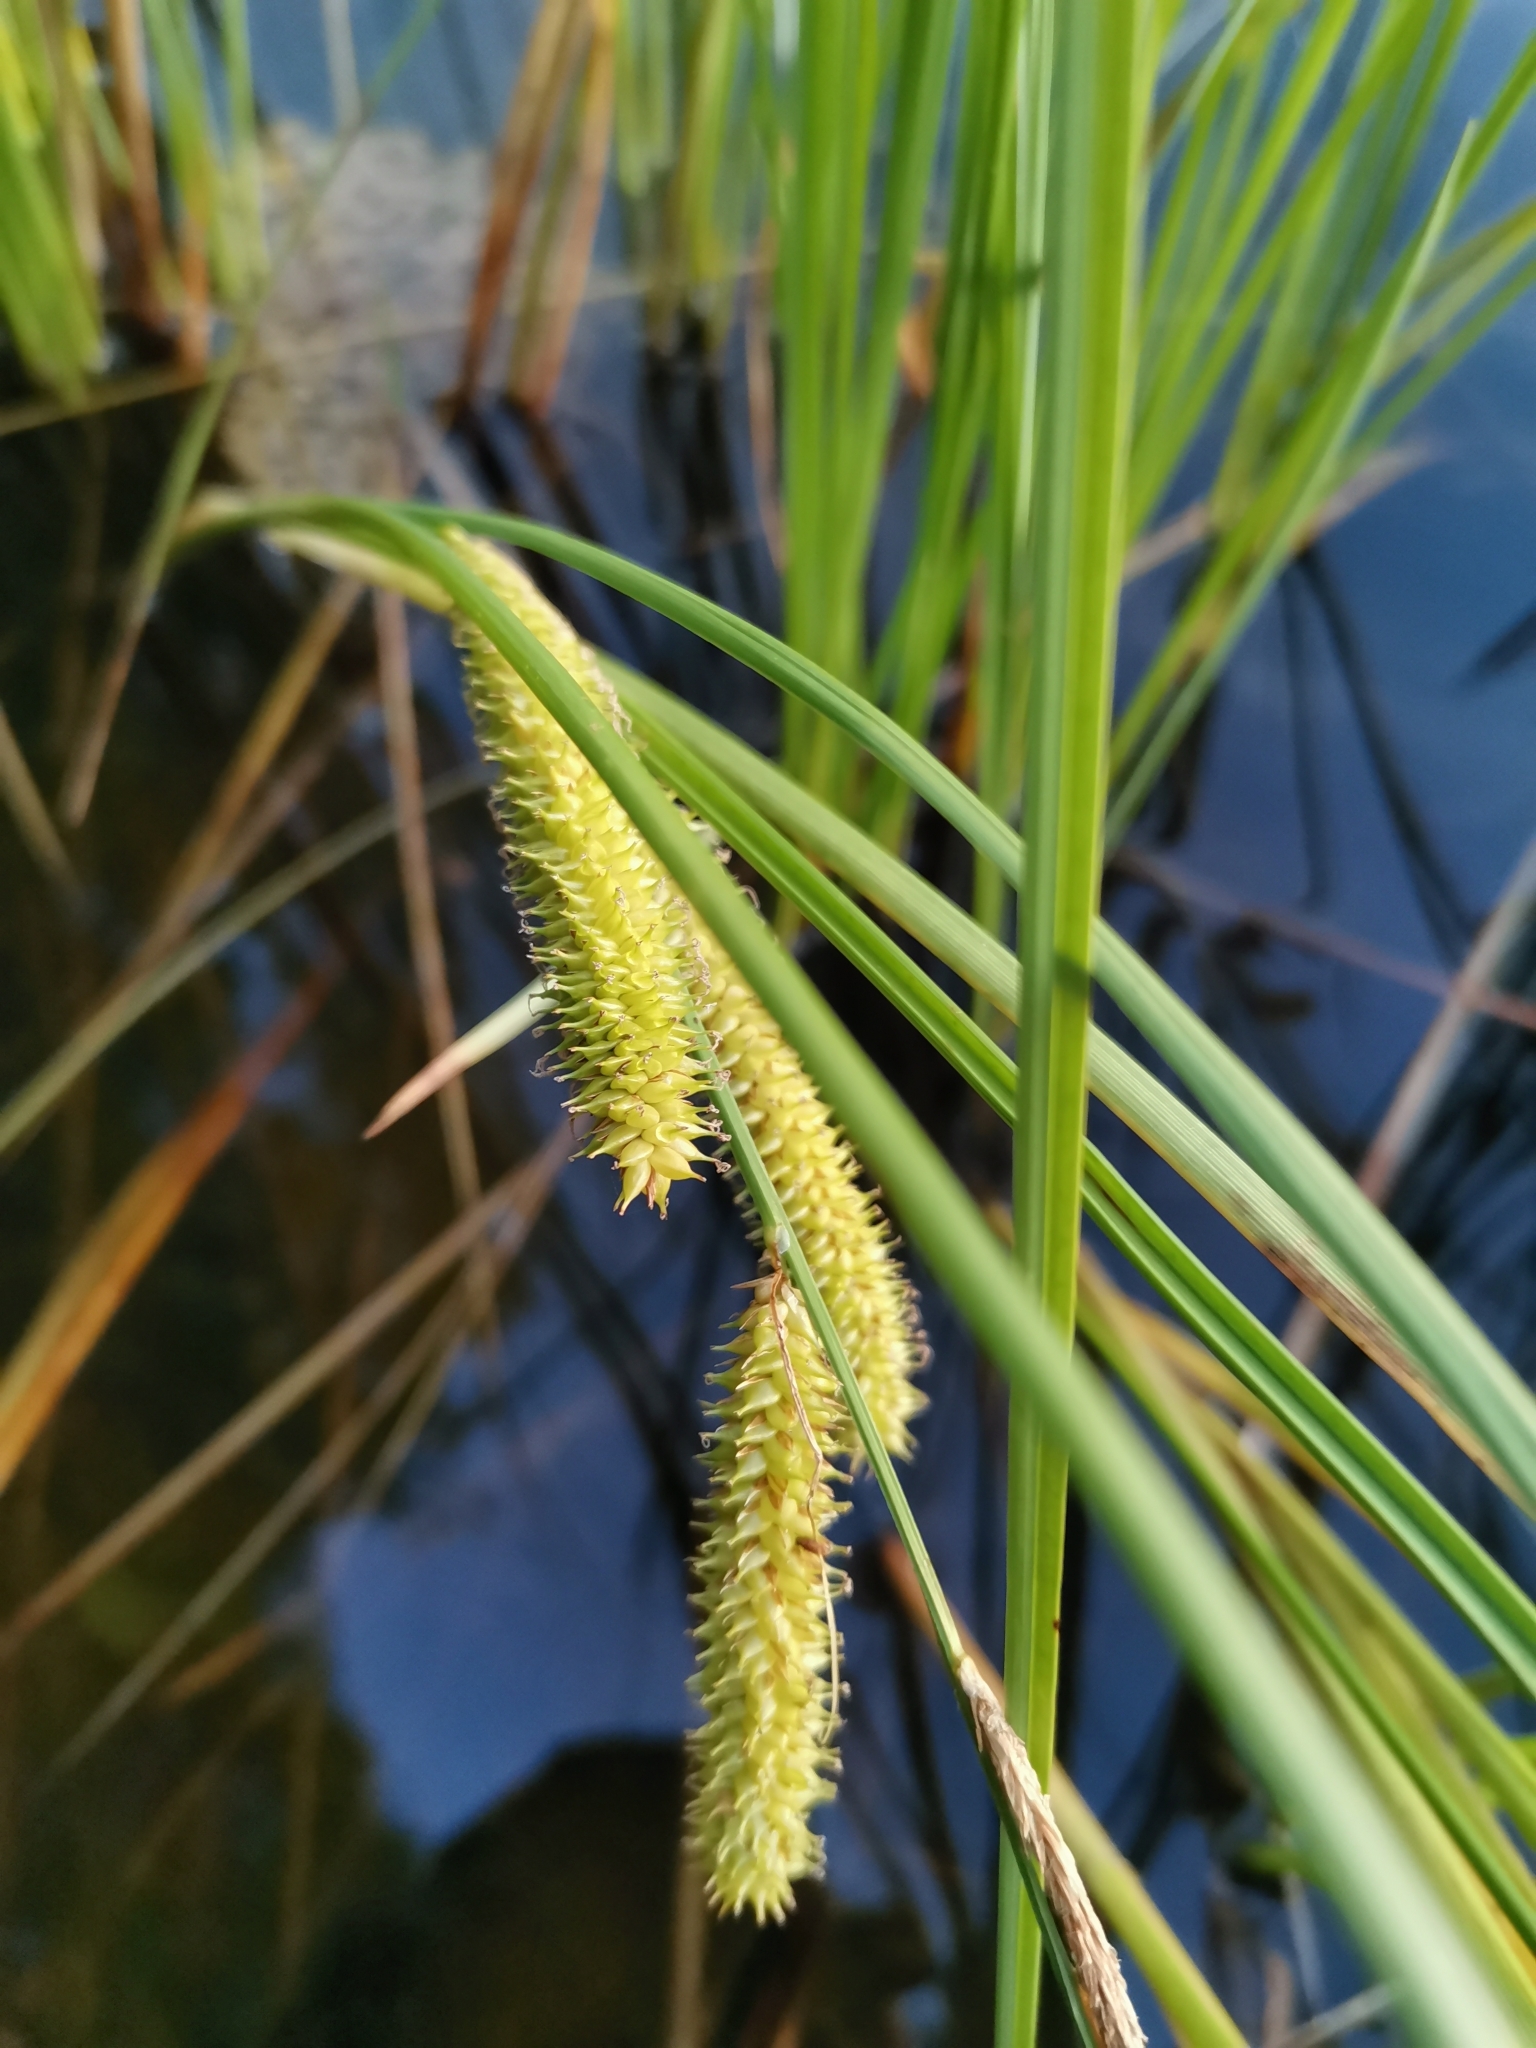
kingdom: Plantae
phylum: Tracheophyta
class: Liliopsida
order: Poales
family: Cyperaceae
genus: Carex
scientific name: Carex rostrata
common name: Bottle sedge
